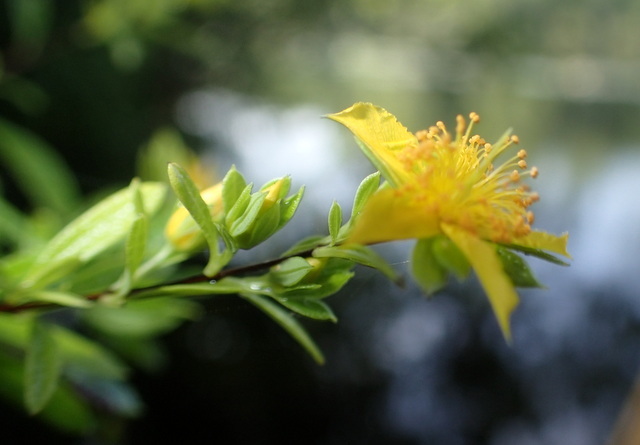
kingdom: Plantae
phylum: Tracheophyta
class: Magnoliopsida
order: Malpighiales
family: Hypericaceae
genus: Hypericum
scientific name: Hypericum fasciculatum
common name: Peelbark st. john's wort
